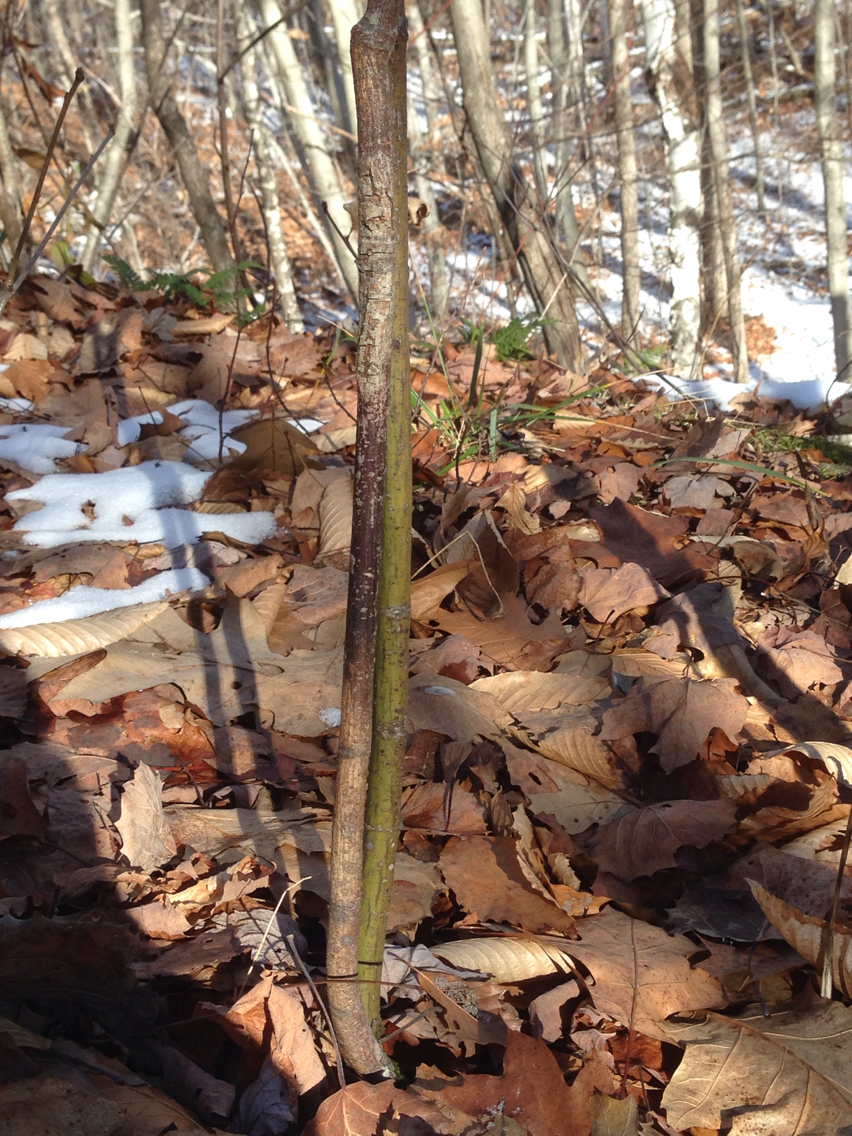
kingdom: Plantae
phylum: Tracheophyta
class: Magnoliopsida
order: Sapindales
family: Sapindaceae
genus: Acer
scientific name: Acer pensylvanicum
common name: Moosewood
